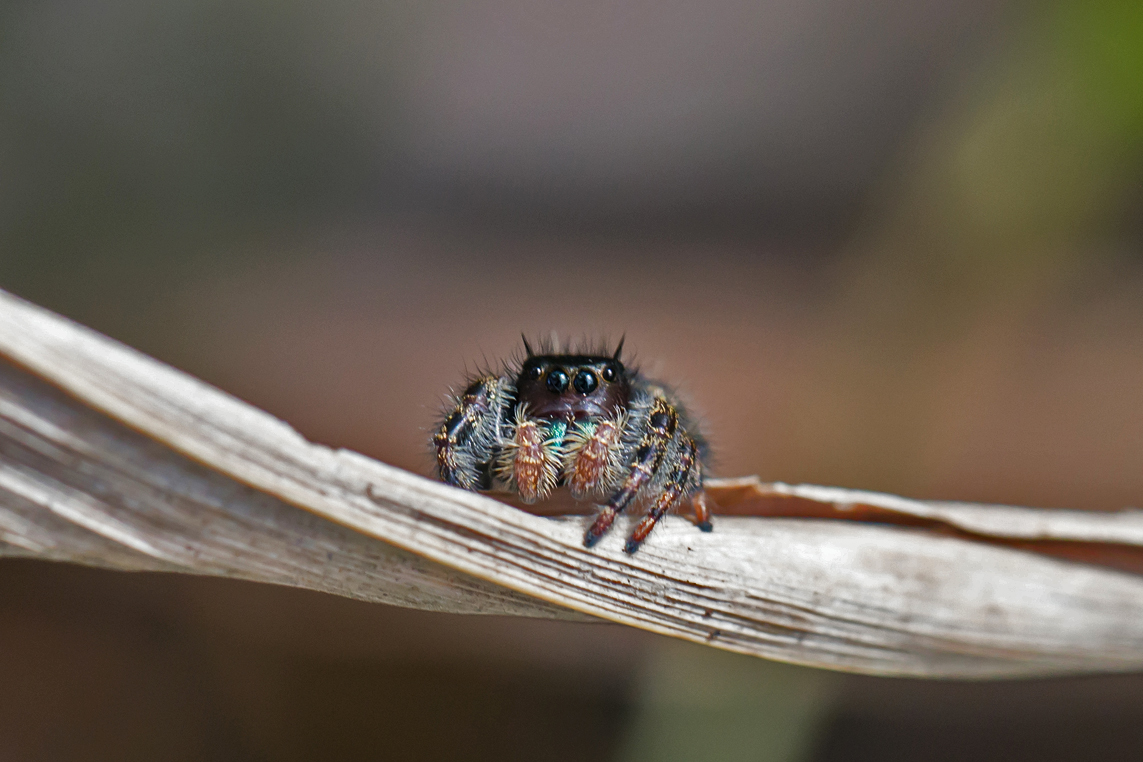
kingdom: Animalia
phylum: Arthropoda
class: Arachnida
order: Araneae
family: Salticidae
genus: Phidippus
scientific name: Phidippus audax
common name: Bold jumper
